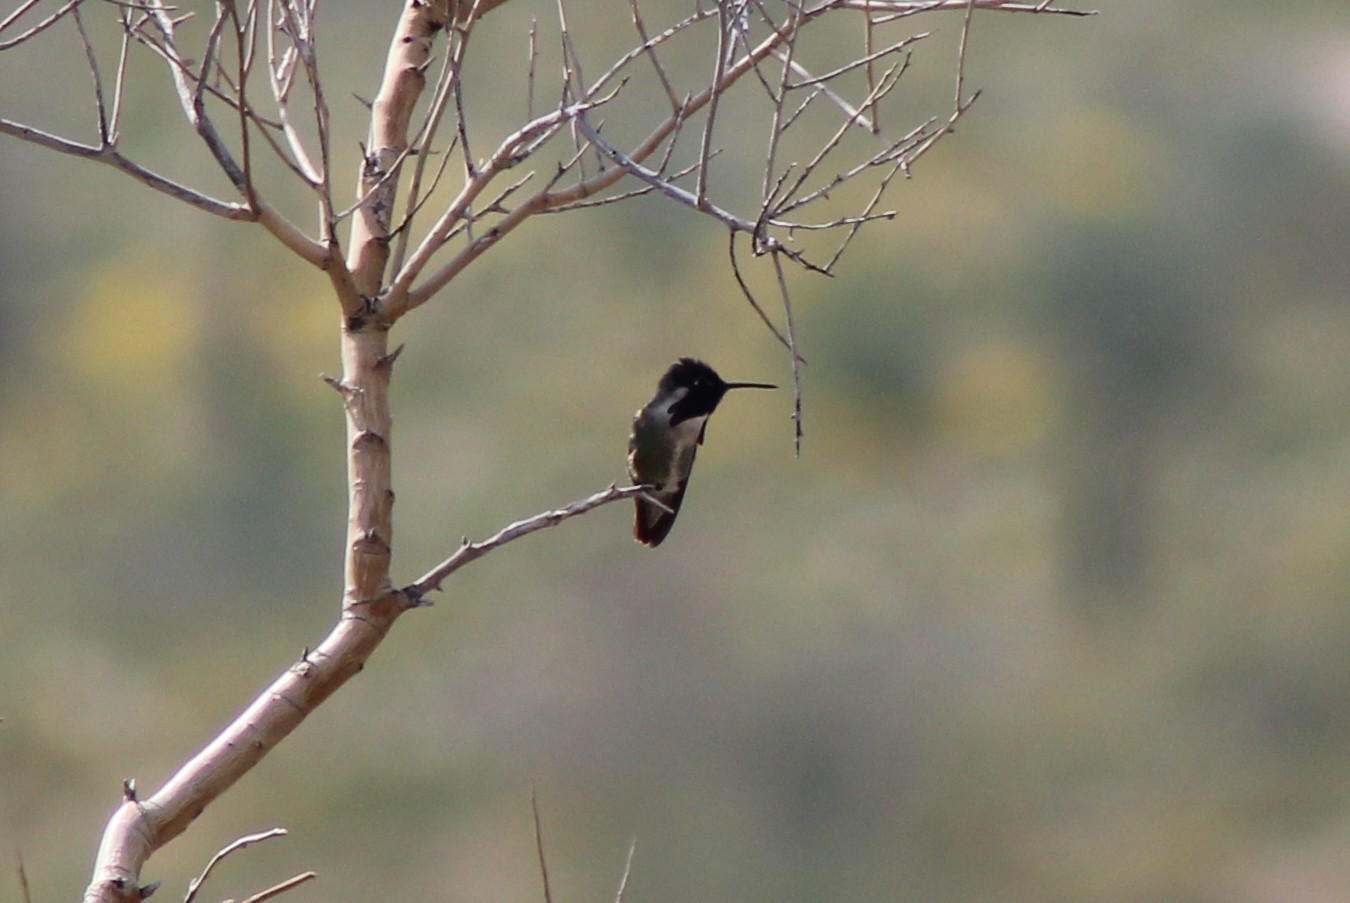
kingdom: Animalia
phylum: Chordata
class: Aves
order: Apodiformes
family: Trochilidae
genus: Calypte
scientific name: Calypte costae
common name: Costa's hummingbird
